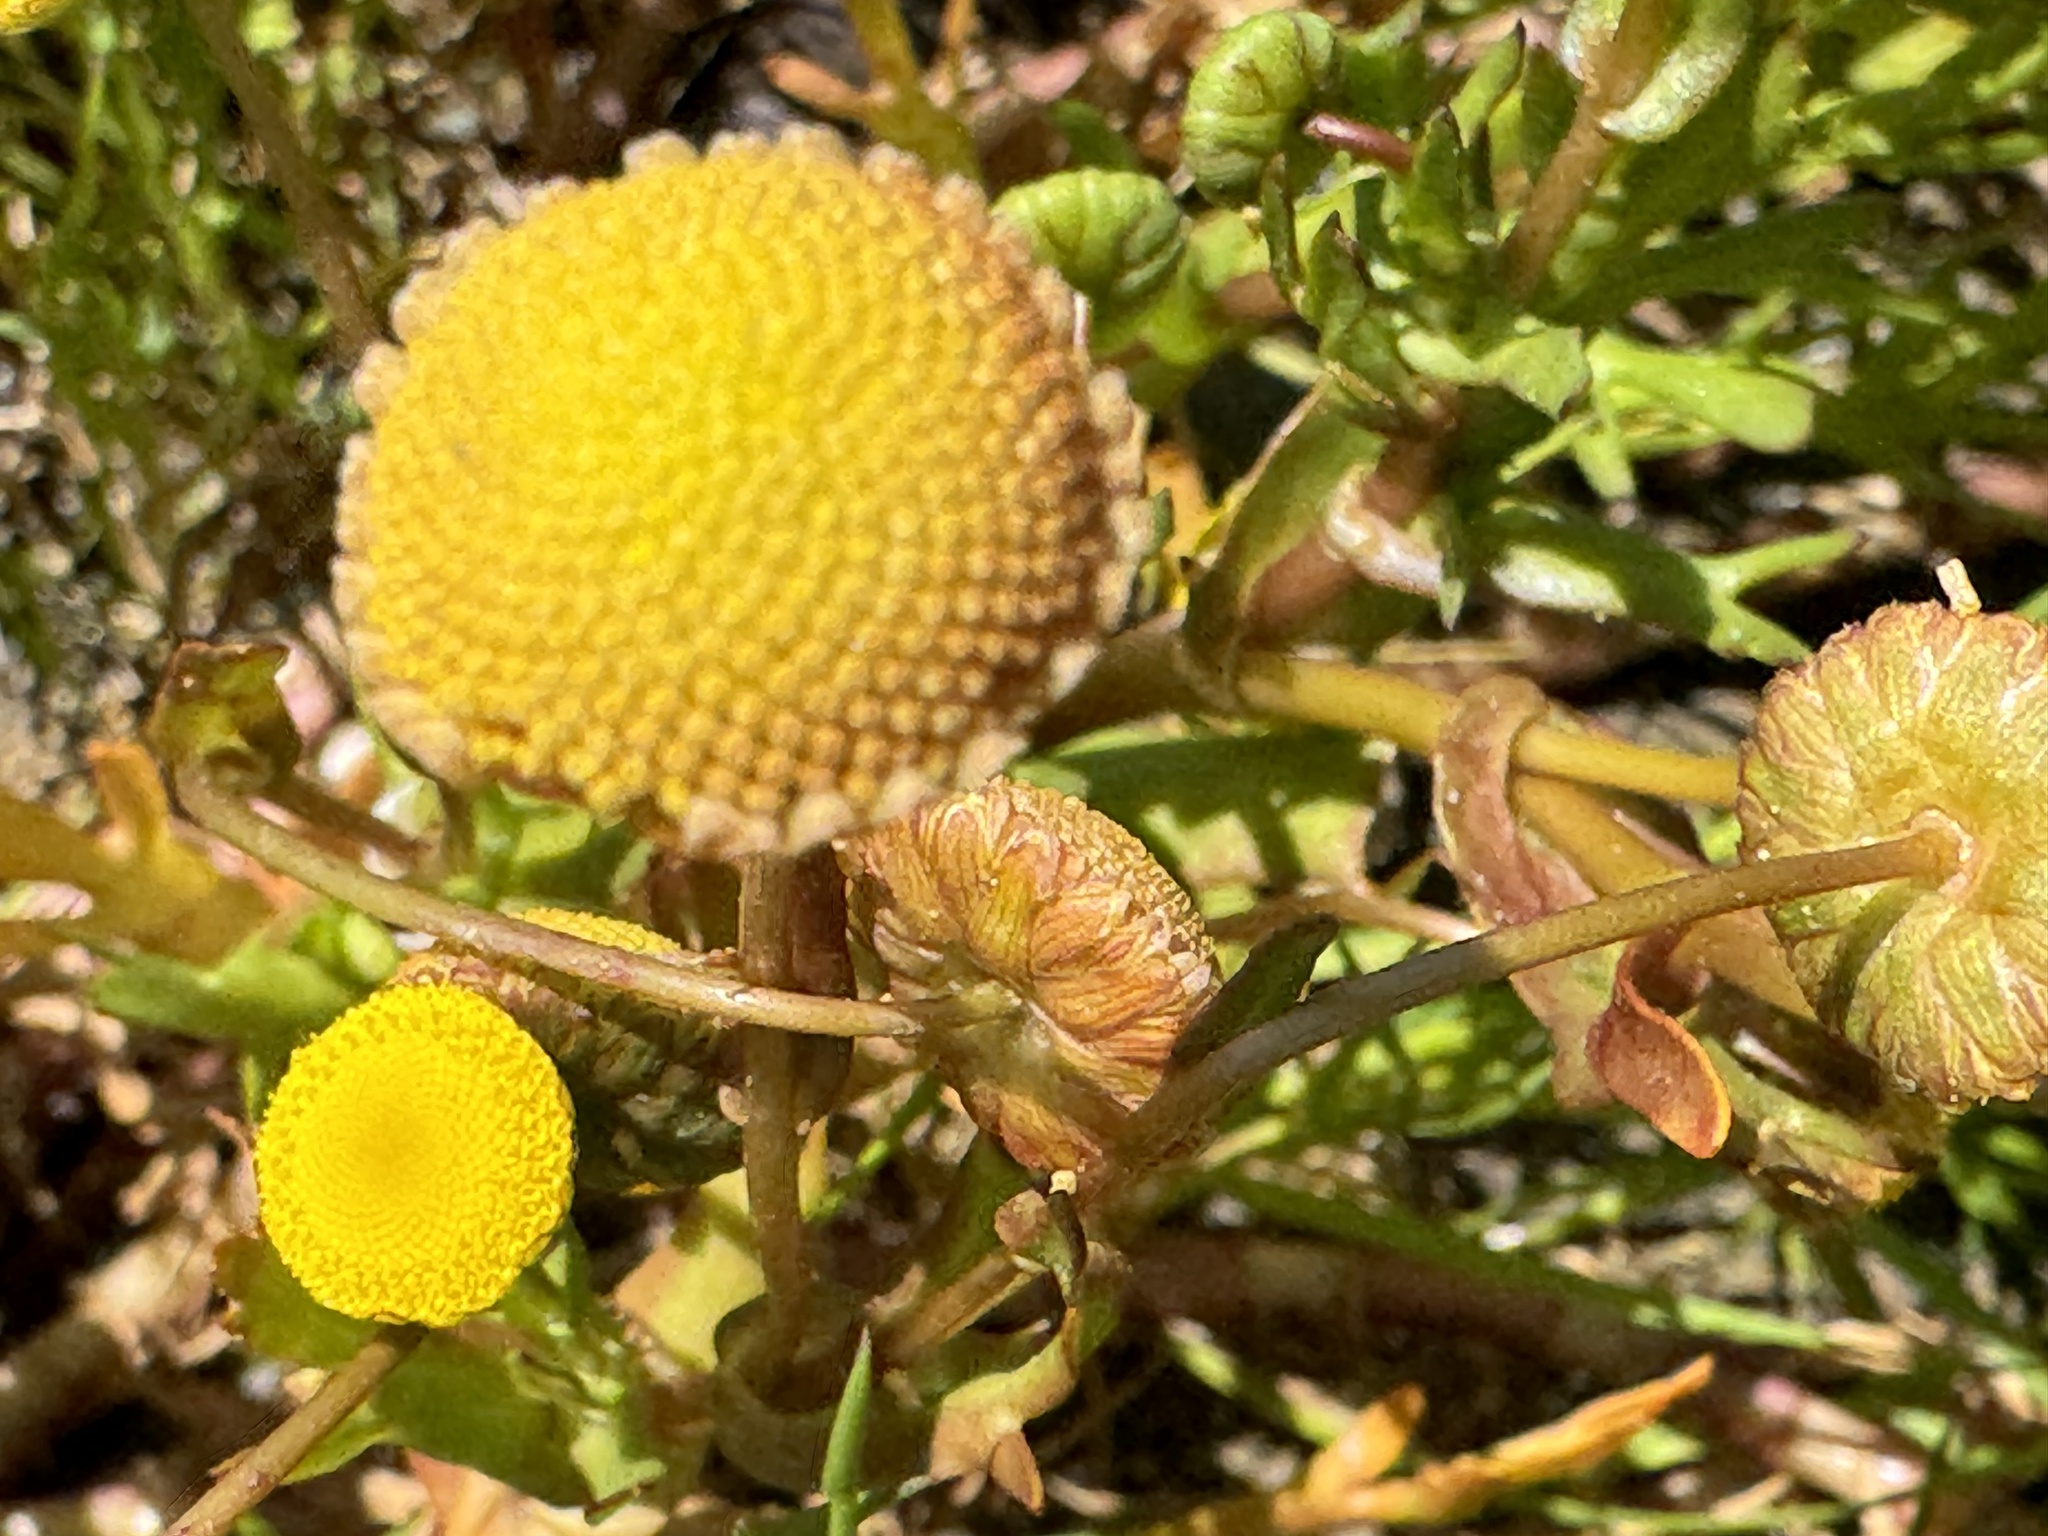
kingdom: Plantae
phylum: Tracheophyta
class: Magnoliopsida
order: Asterales
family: Asteraceae
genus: Cotula
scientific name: Cotula coronopifolia
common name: Buttonweed
